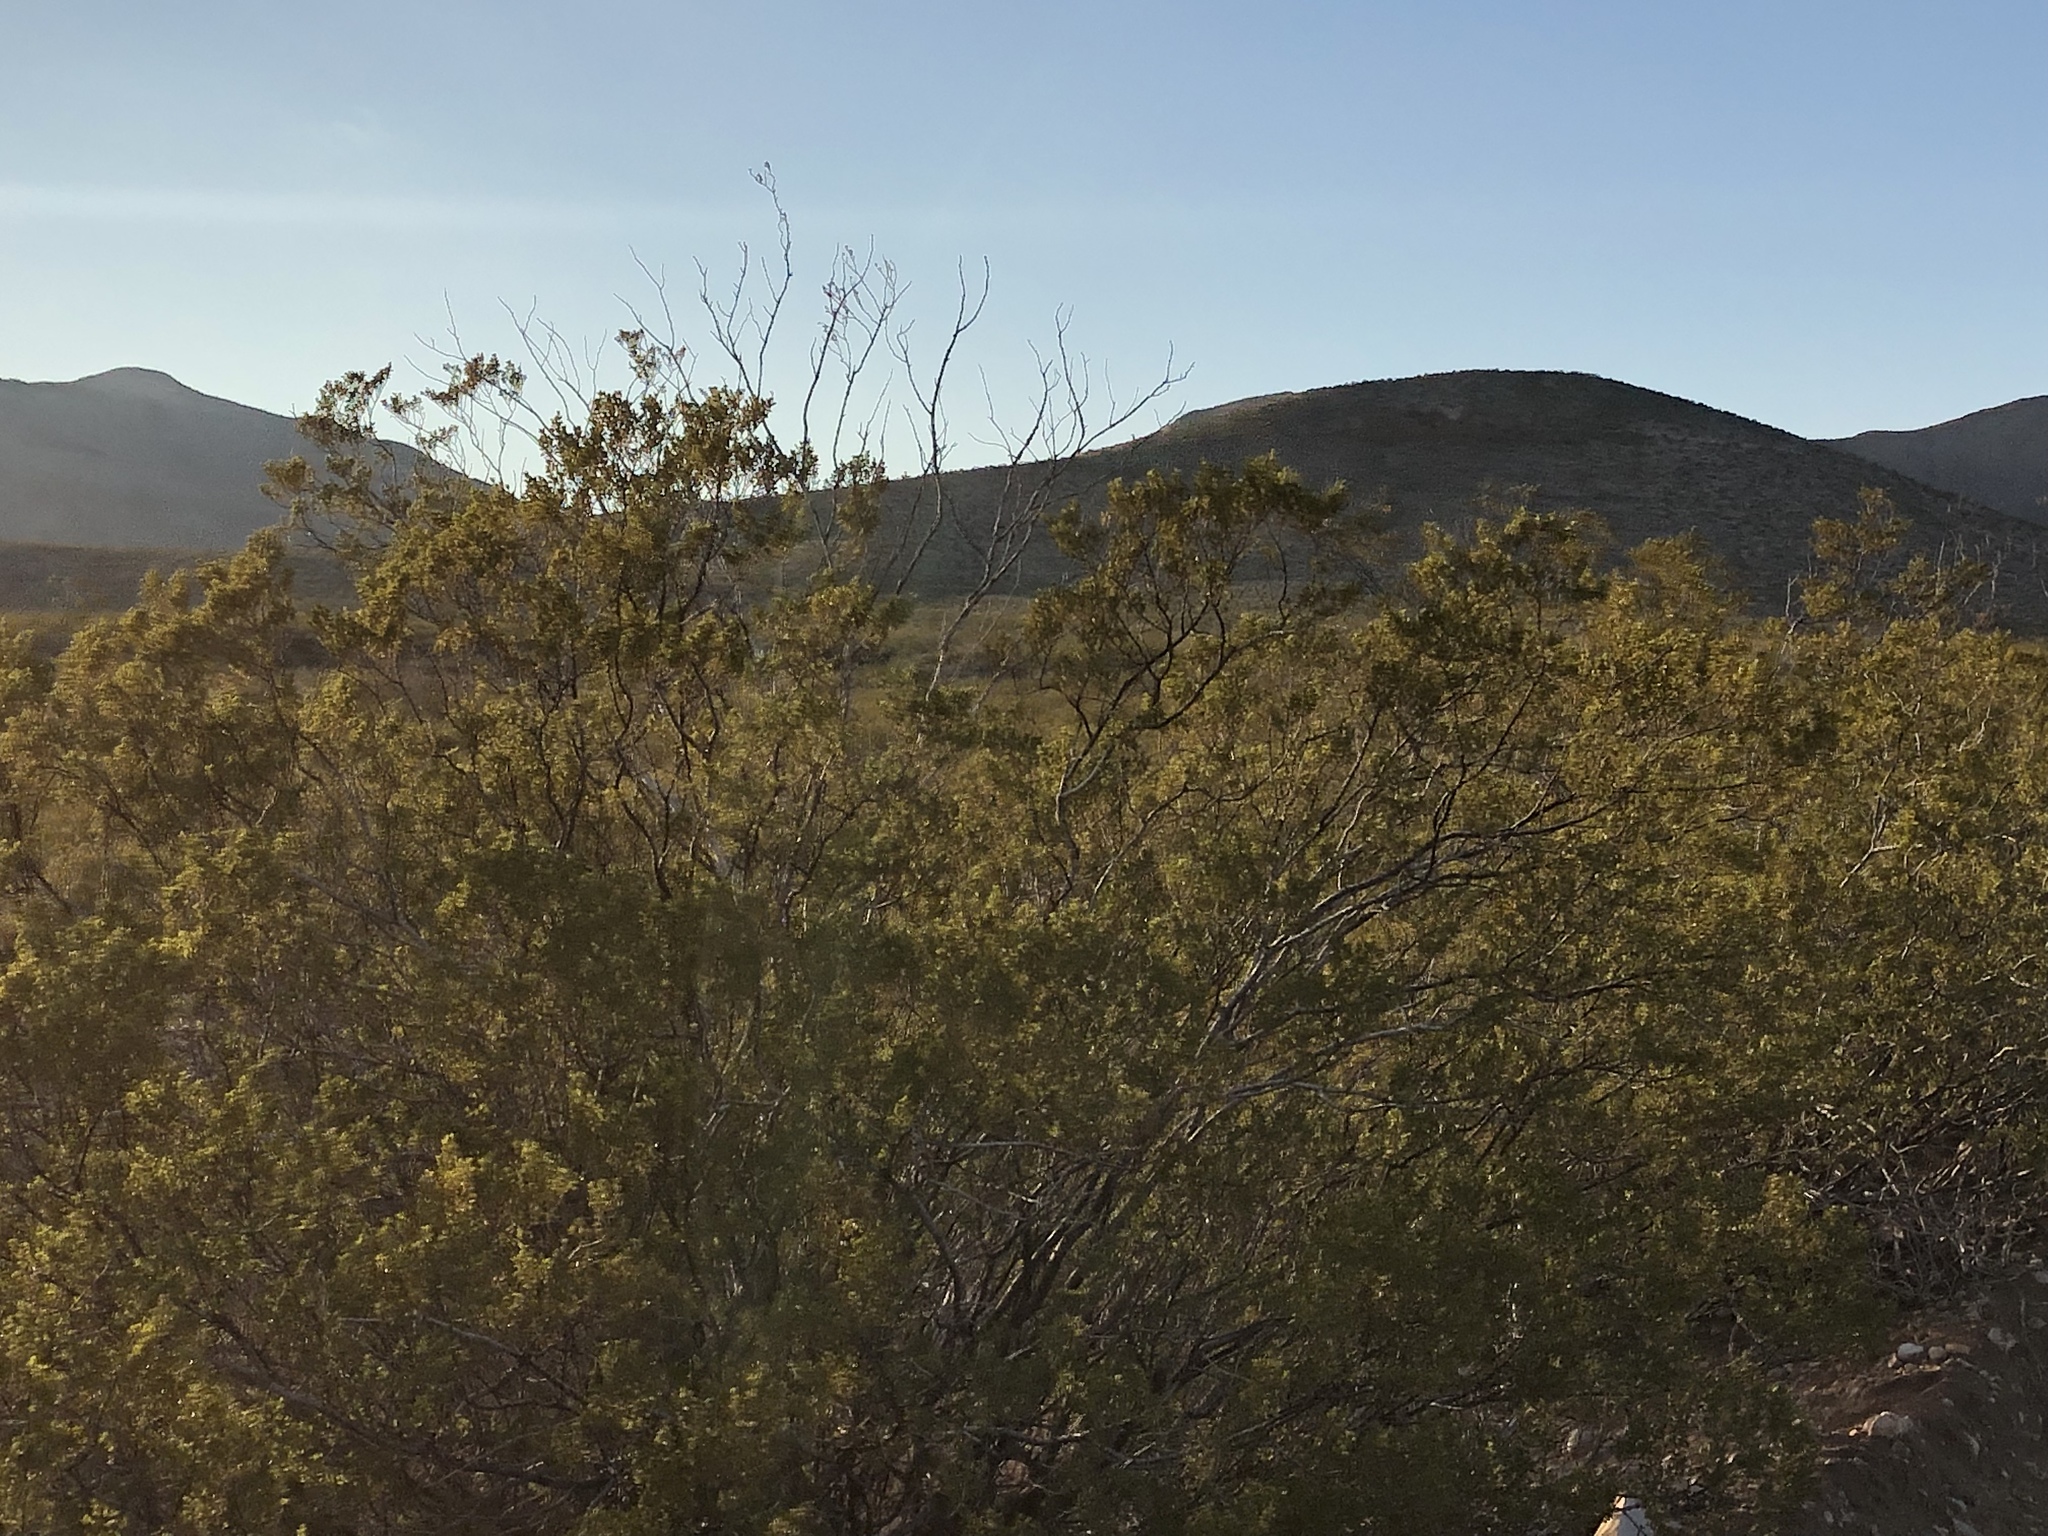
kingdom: Plantae
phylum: Tracheophyta
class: Magnoliopsida
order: Zygophyllales
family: Zygophyllaceae
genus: Larrea
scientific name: Larrea tridentata
